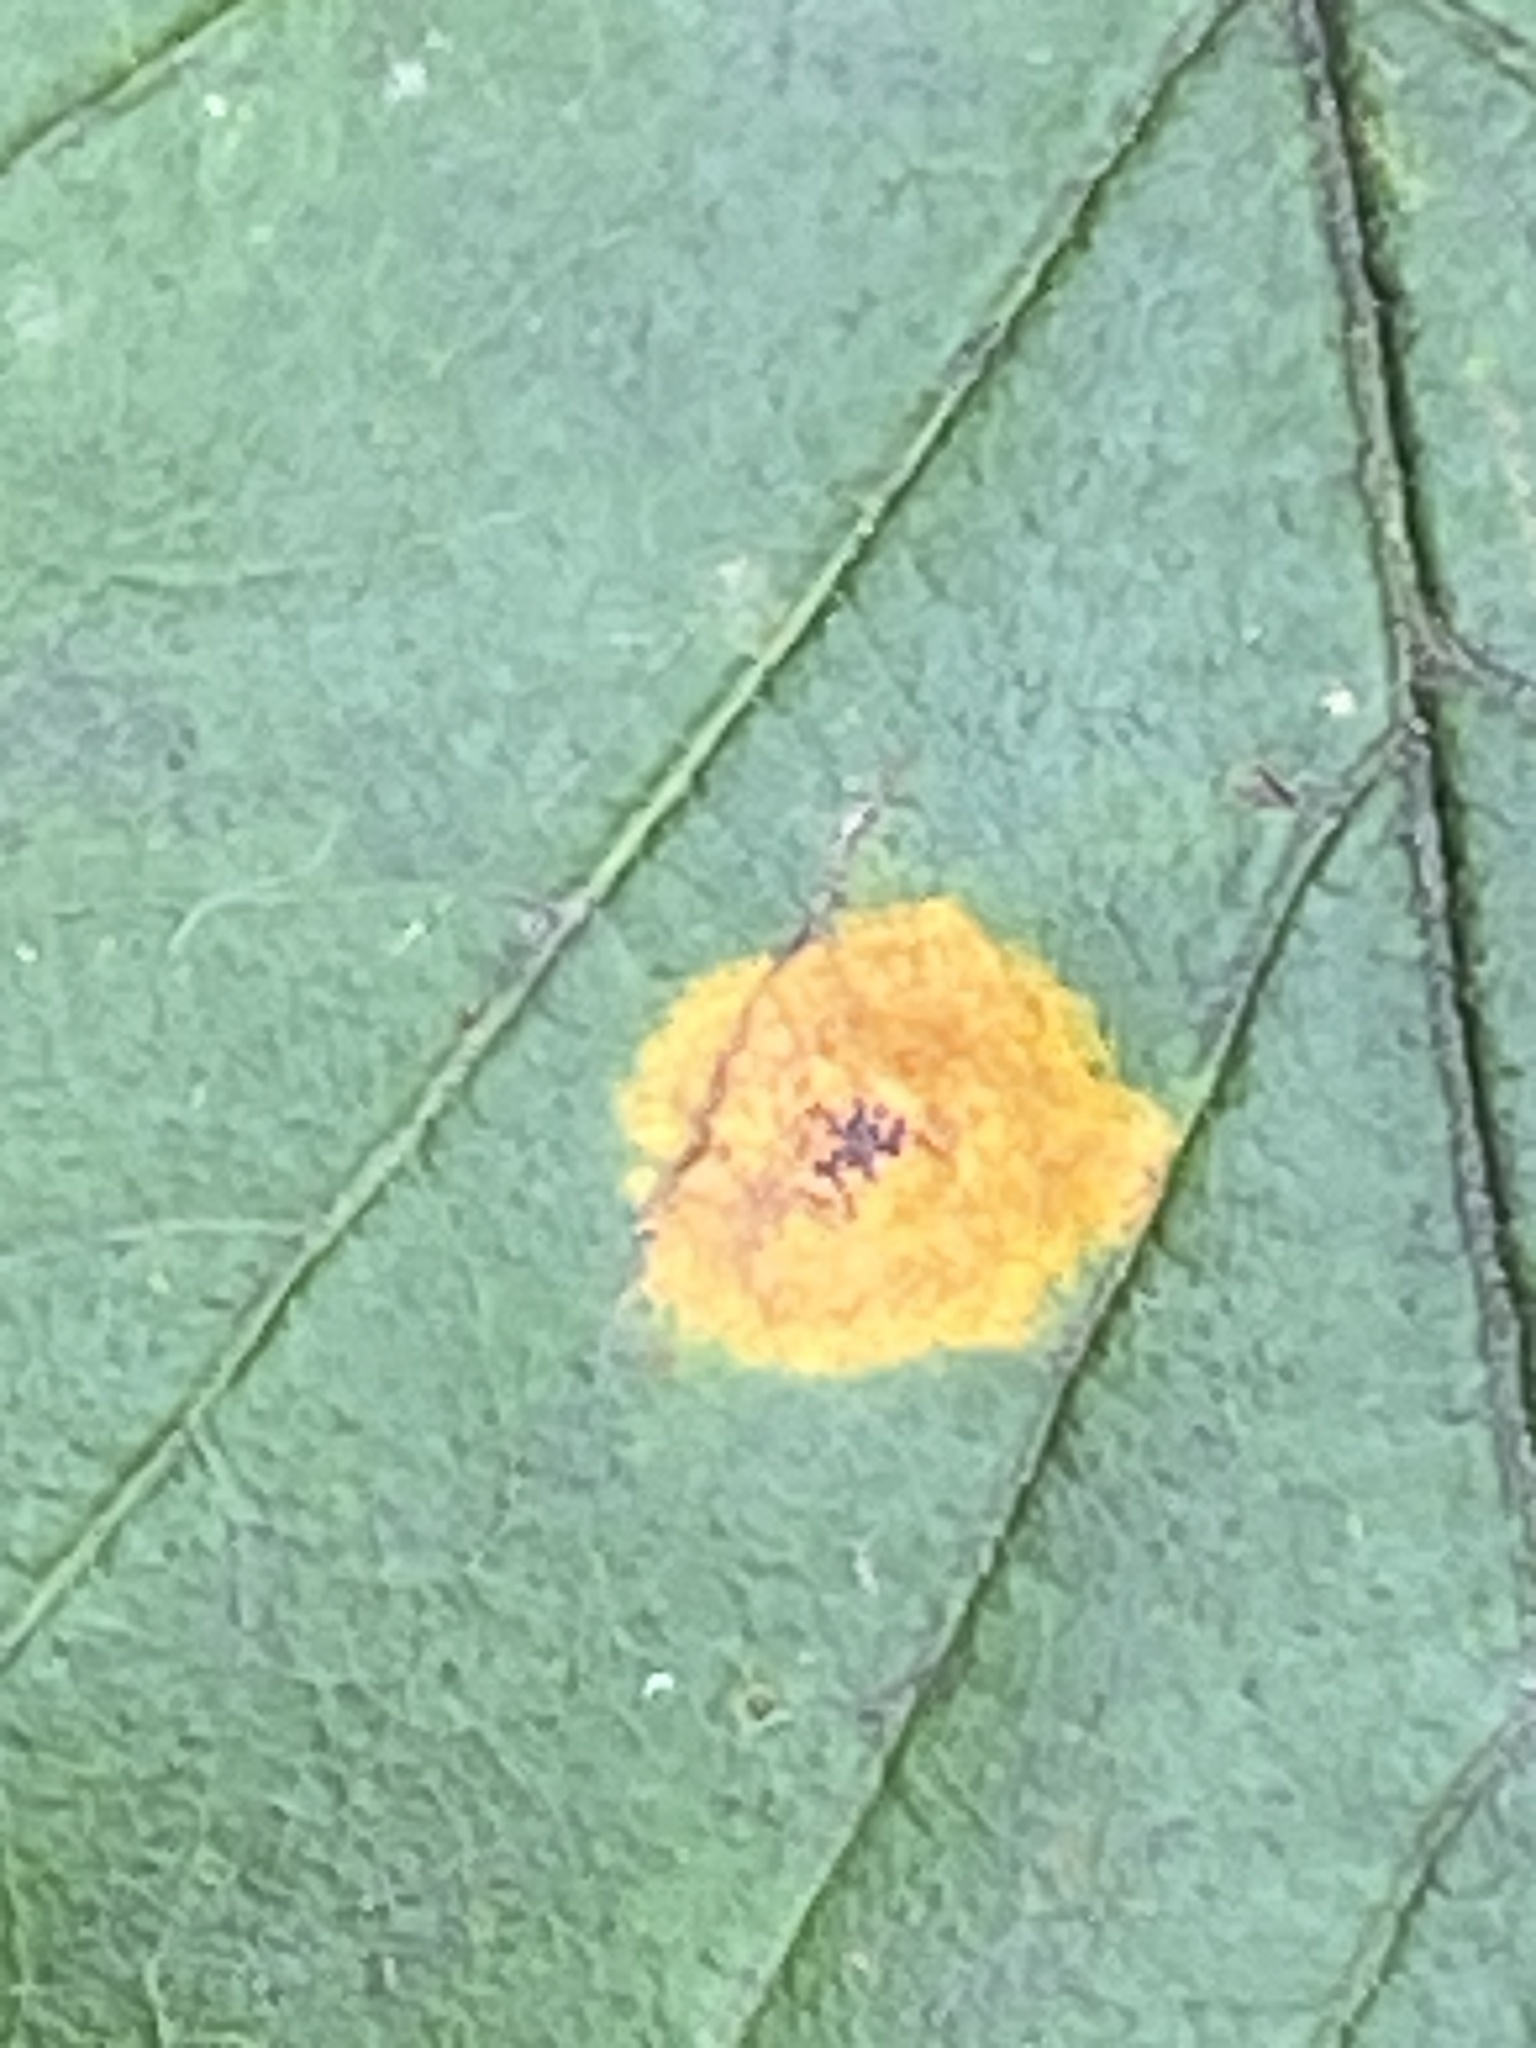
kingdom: Fungi
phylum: Basidiomycota
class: Pucciniomycetes
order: Pucciniales
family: Gymnosporangiaceae
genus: Gymnosporangium
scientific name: Gymnosporangium globosum
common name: Juniper-hawthorn rust
